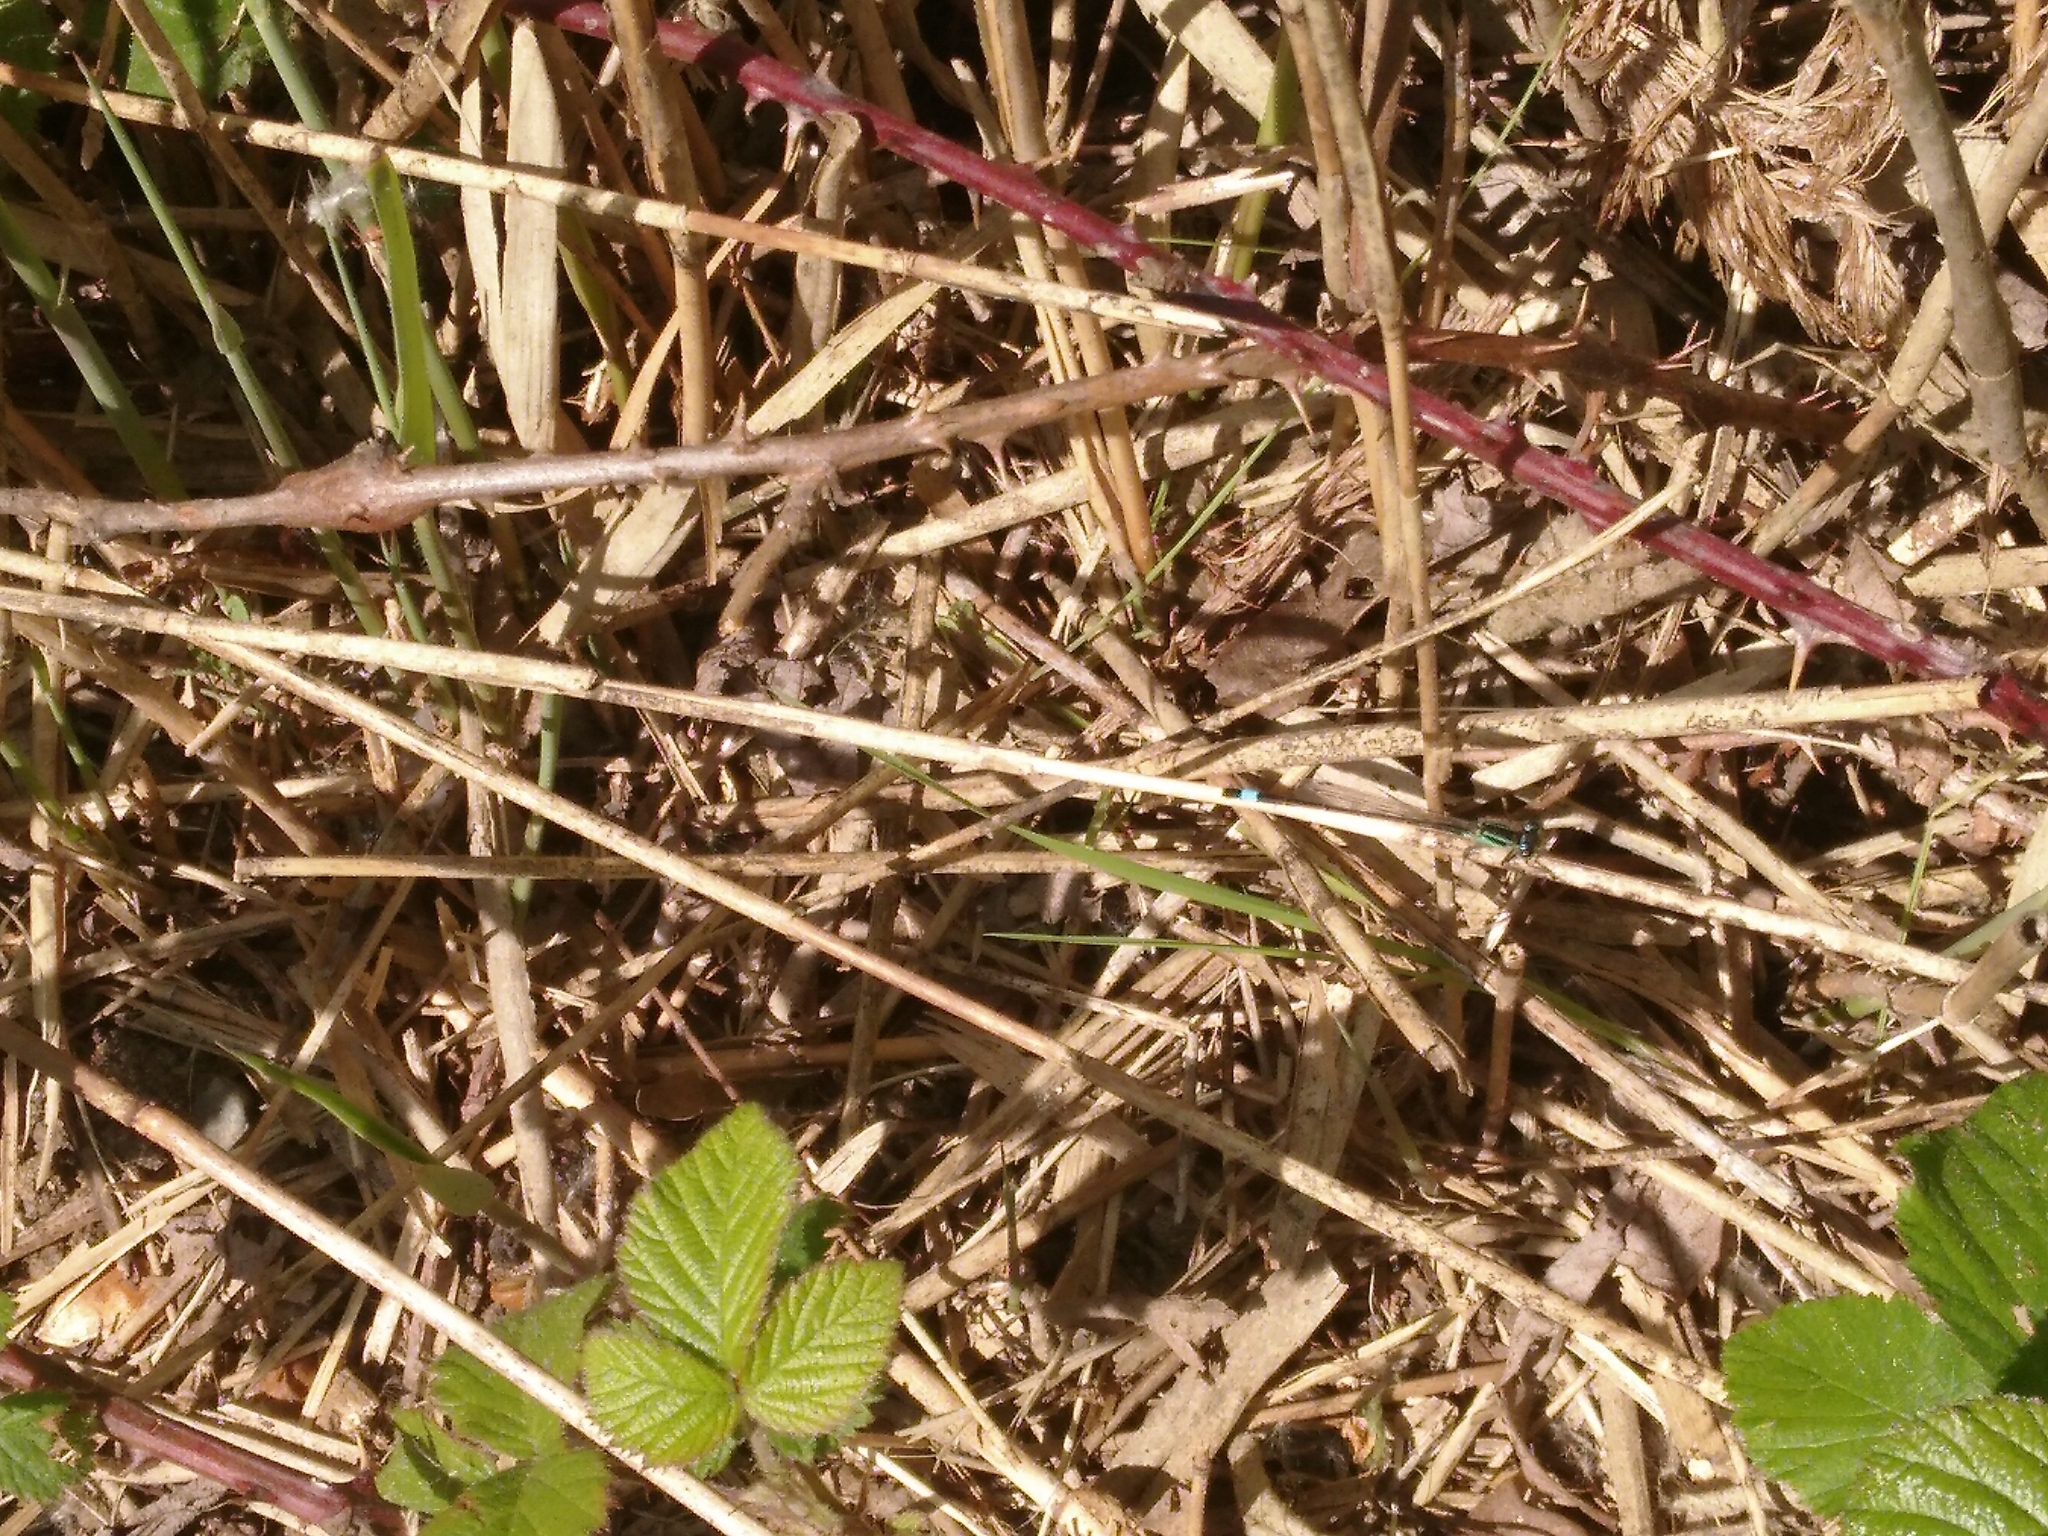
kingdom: Animalia
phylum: Arthropoda
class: Insecta
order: Odonata
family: Coenagrionidae
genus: Ischnura
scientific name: Ischnura elegans
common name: Blue-tailed damselfly
